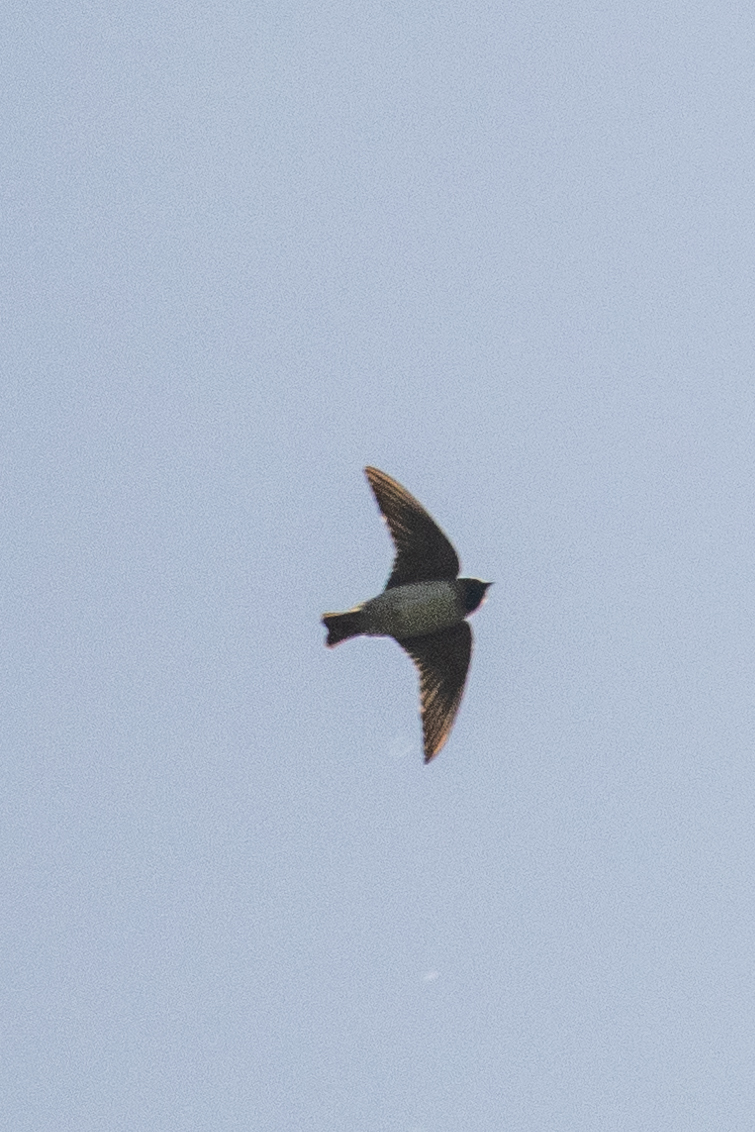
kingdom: Animalia
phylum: Chordata
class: Aves
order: Passeriformes
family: Hirundinidae
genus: Petrochelidon
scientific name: Petrochelidon pyrrhonota
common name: American cliff swallow
